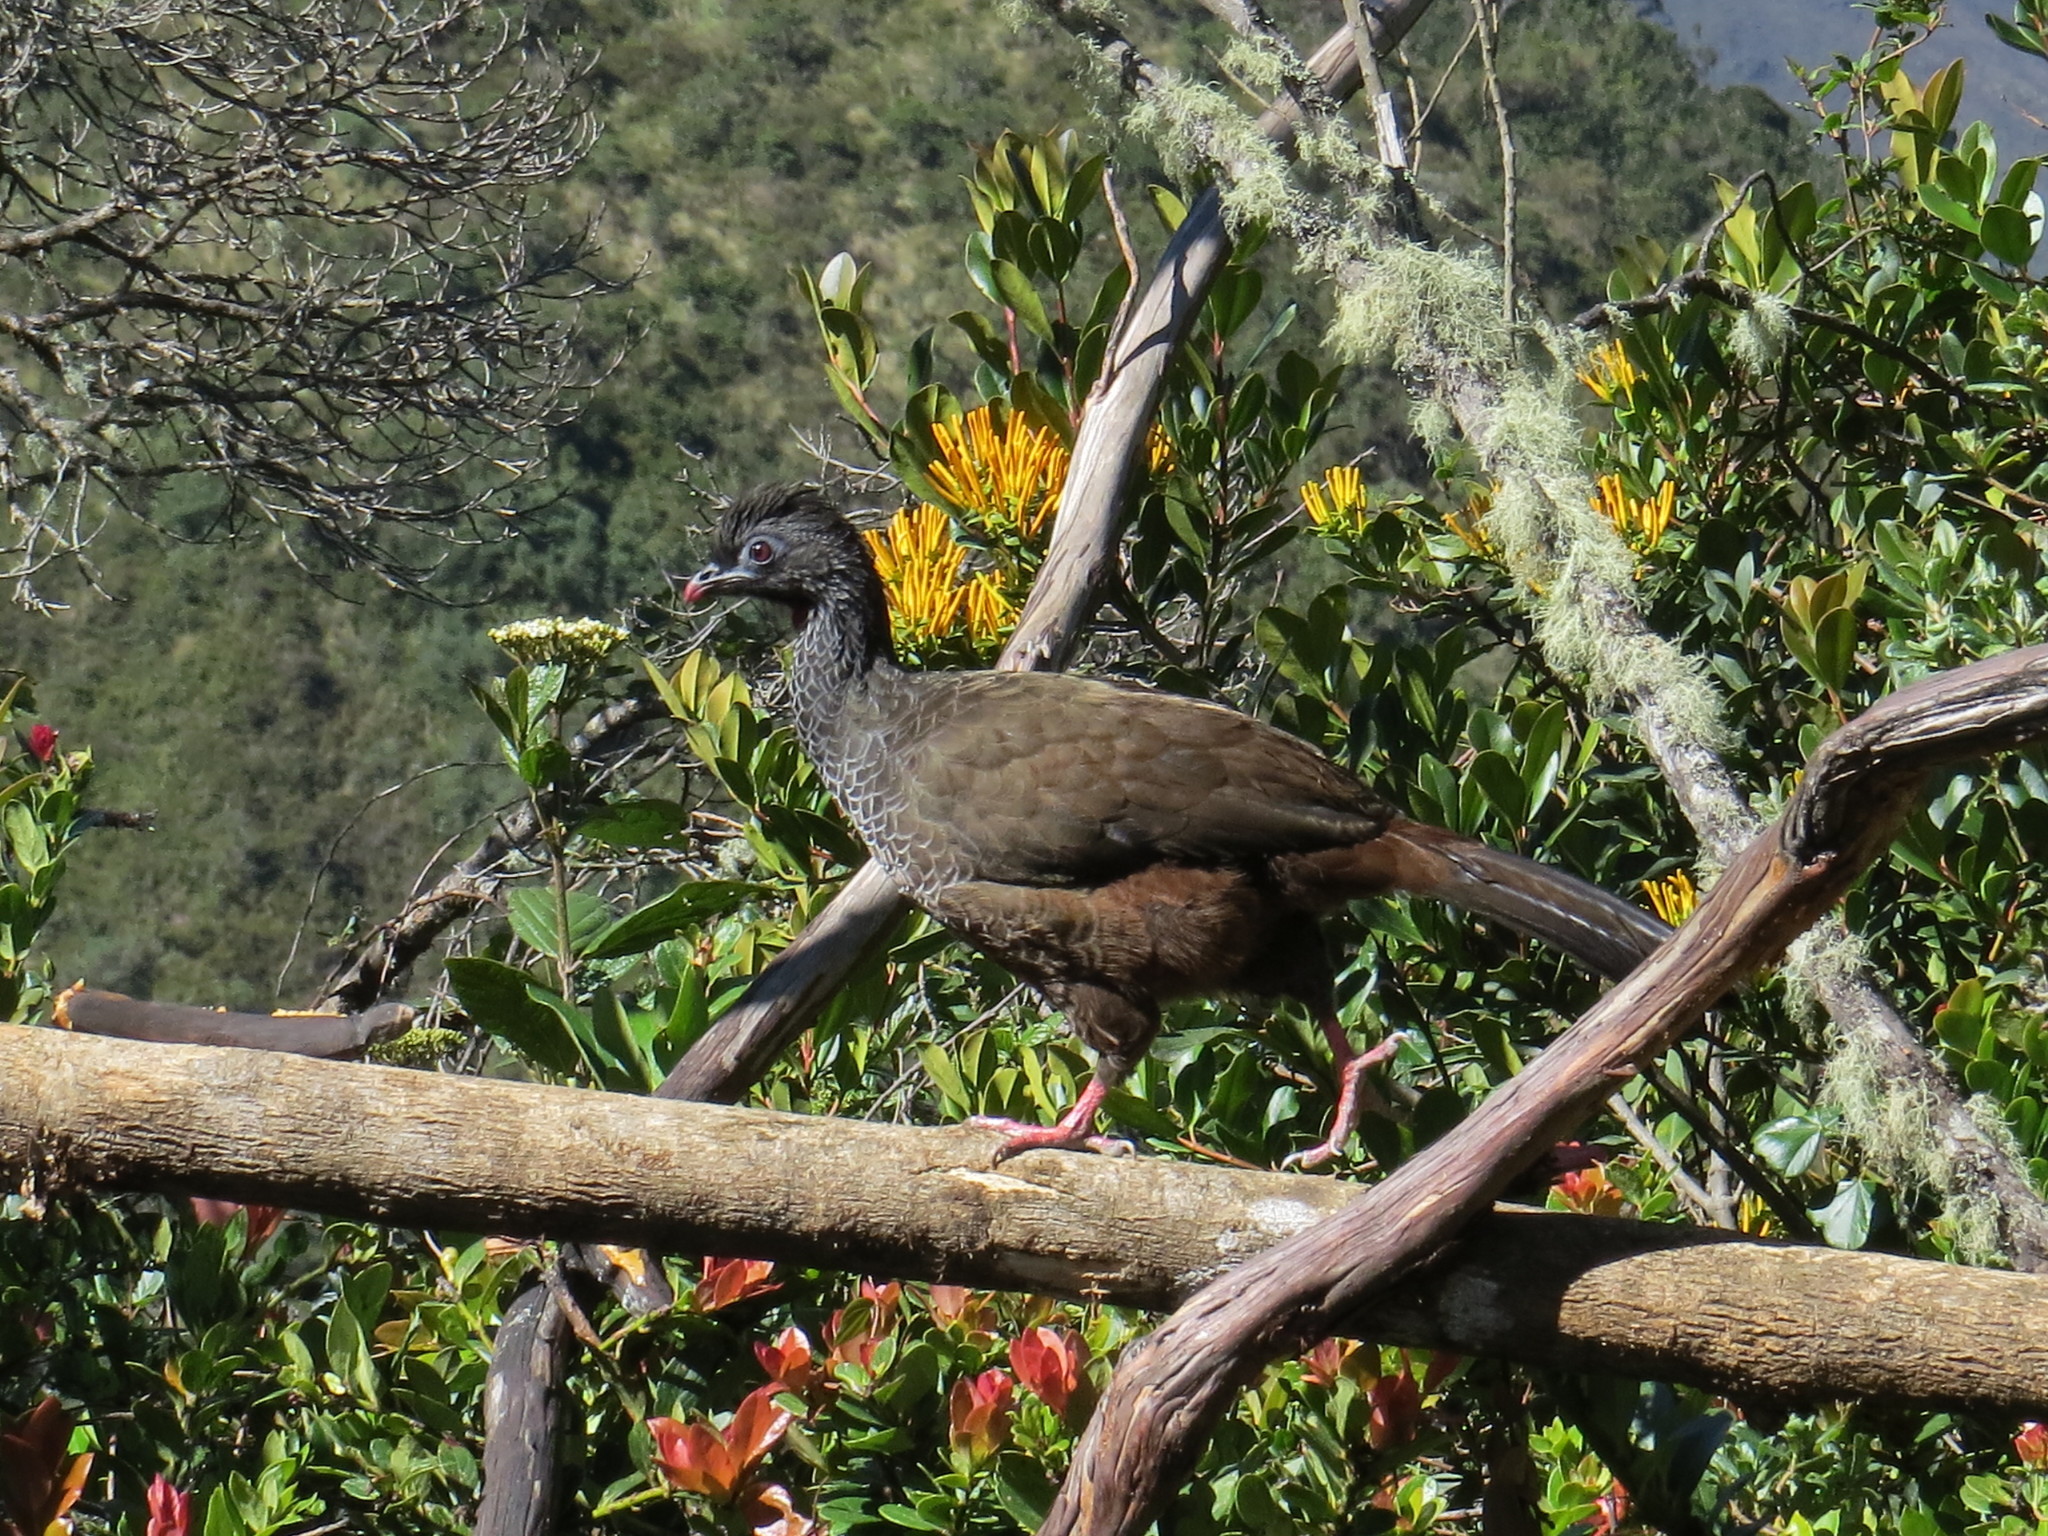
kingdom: Animalia
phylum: Chordata
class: Aves
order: Galliformes
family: Cracidae
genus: Penelope
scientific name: Penelope montagnii
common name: Andean guan
